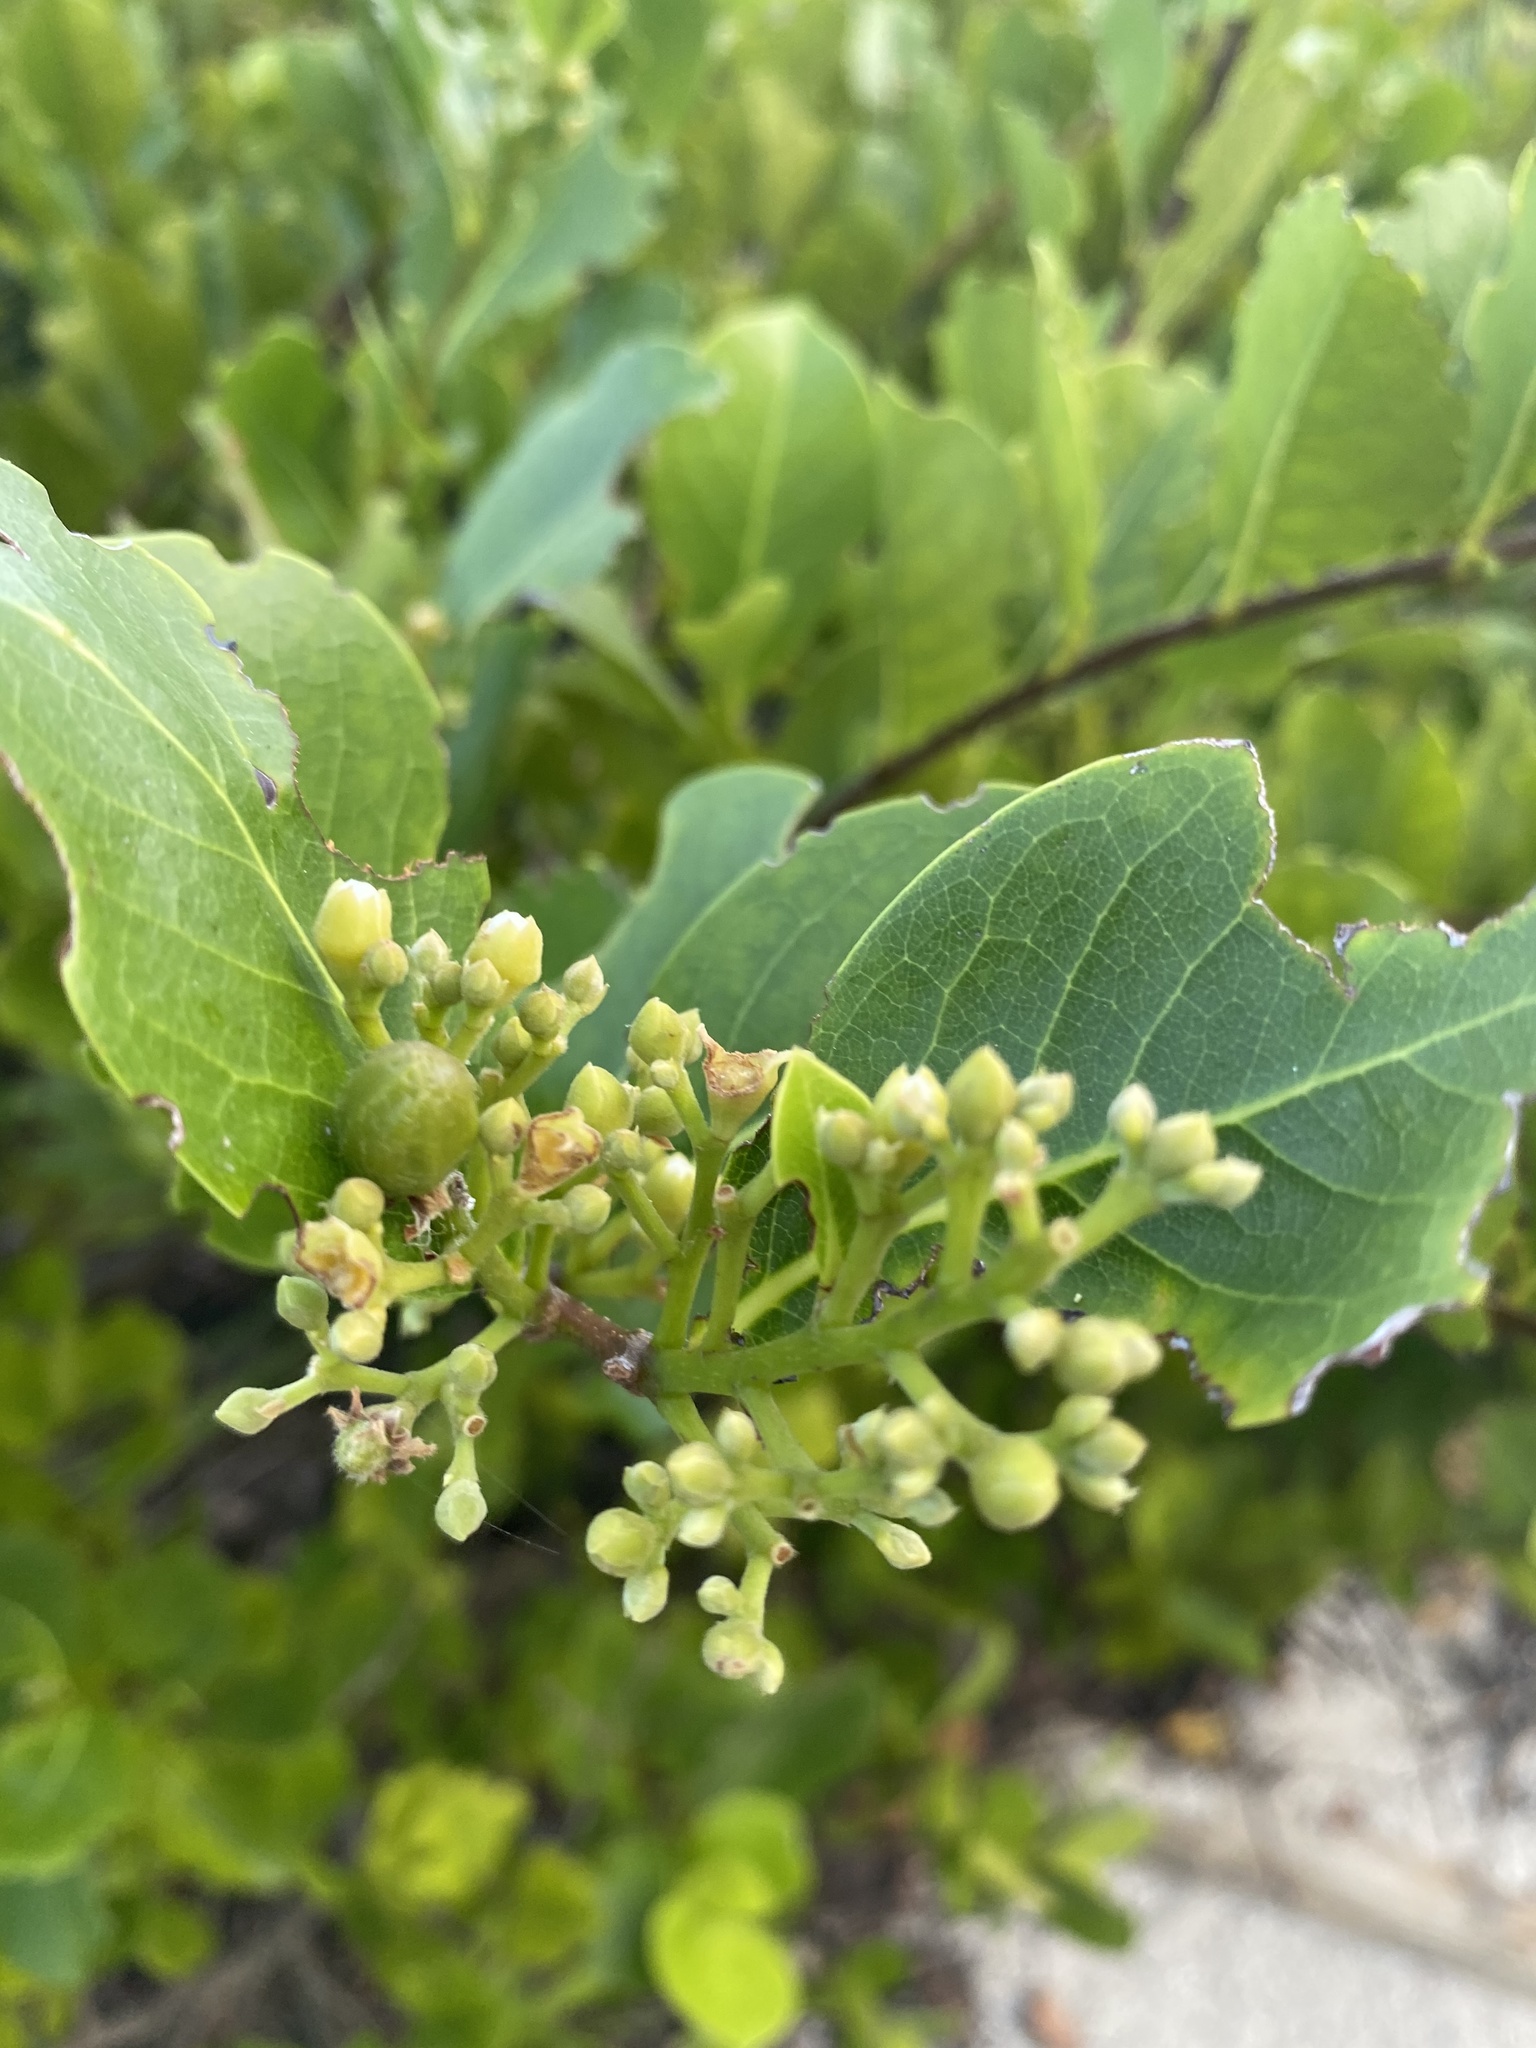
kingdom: Plantae
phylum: Tracheophyta
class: Magnoliopsida
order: Malpighiales
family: Chrysobalanaceae
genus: Chrysobalanus
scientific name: Chrysobalanus icaco
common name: Coco plum
